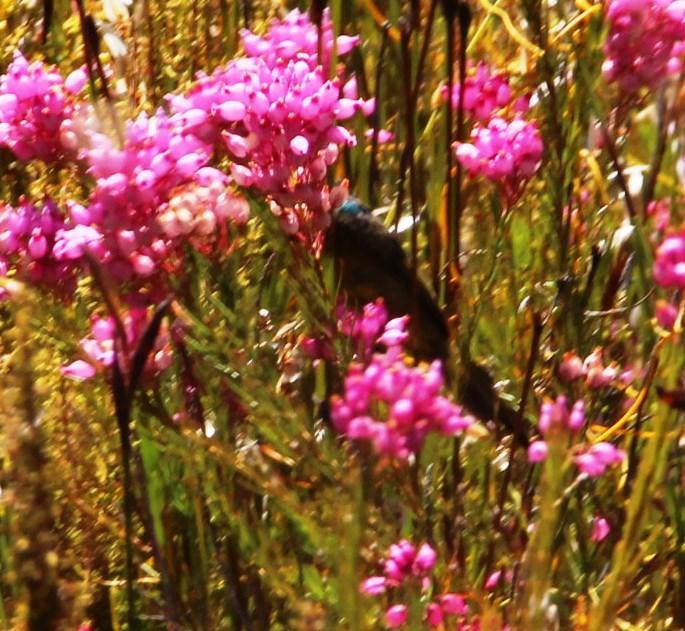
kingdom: Plantae
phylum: Tracheophyta
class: Magnoliopsida
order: Ericales
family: Ericaceae
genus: Erica
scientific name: Erica inflata
